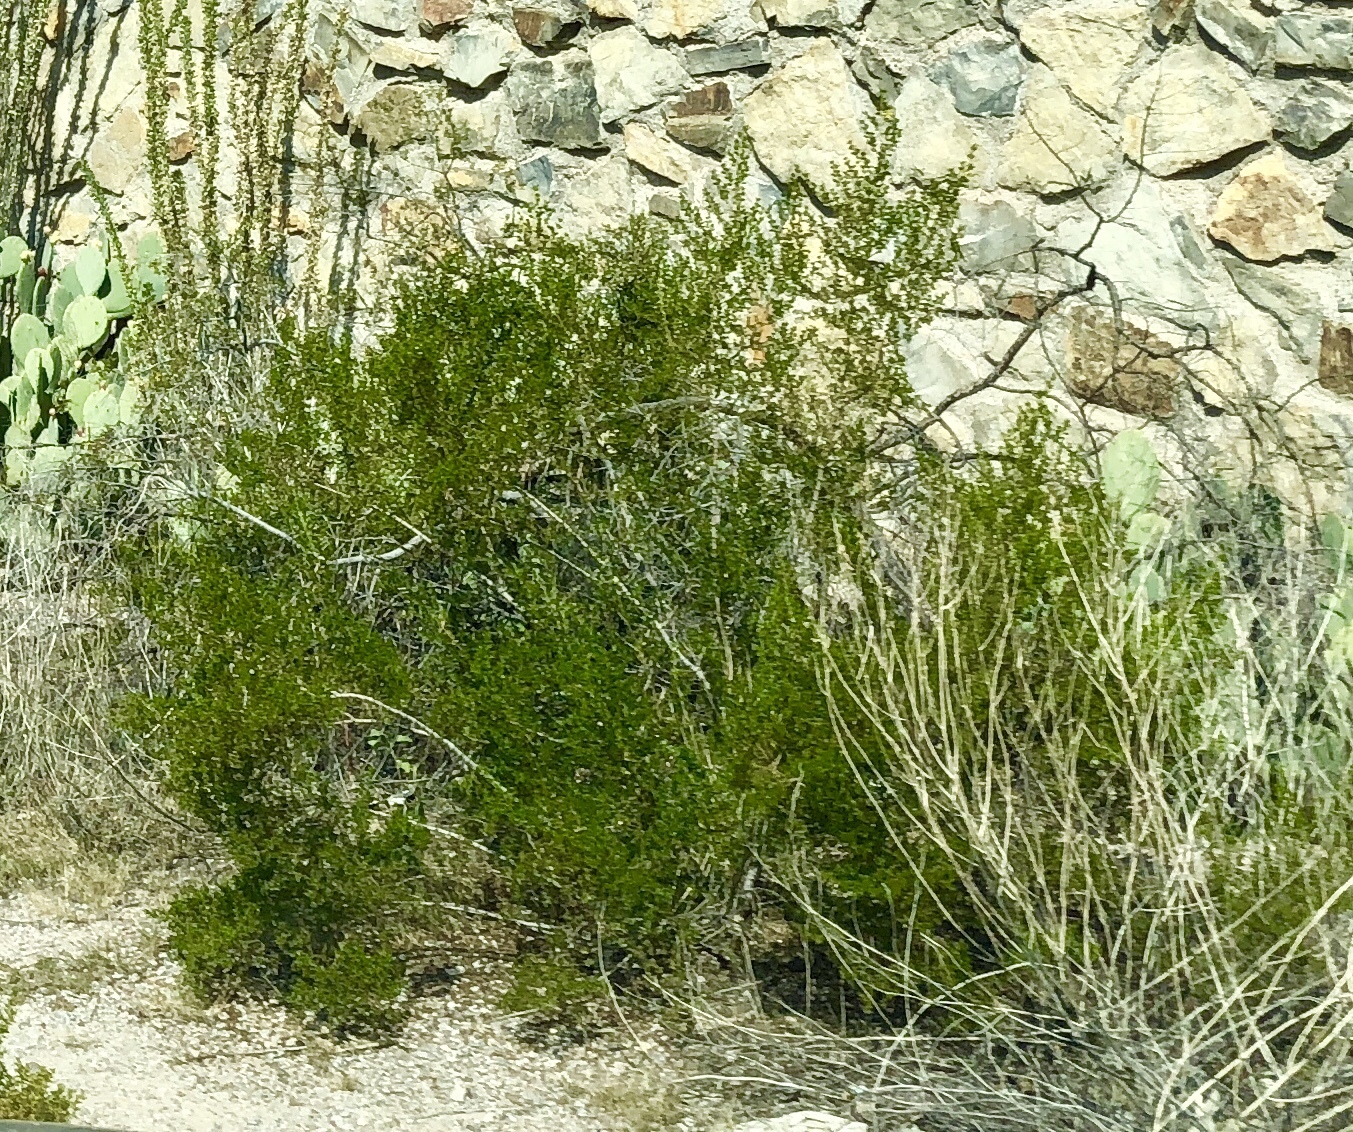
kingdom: Plantae
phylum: Tracheophyta
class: Magnoliopsida
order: Zygophyllales
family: Zygophyllaceae
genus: Larrea
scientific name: Larrea tridentata
